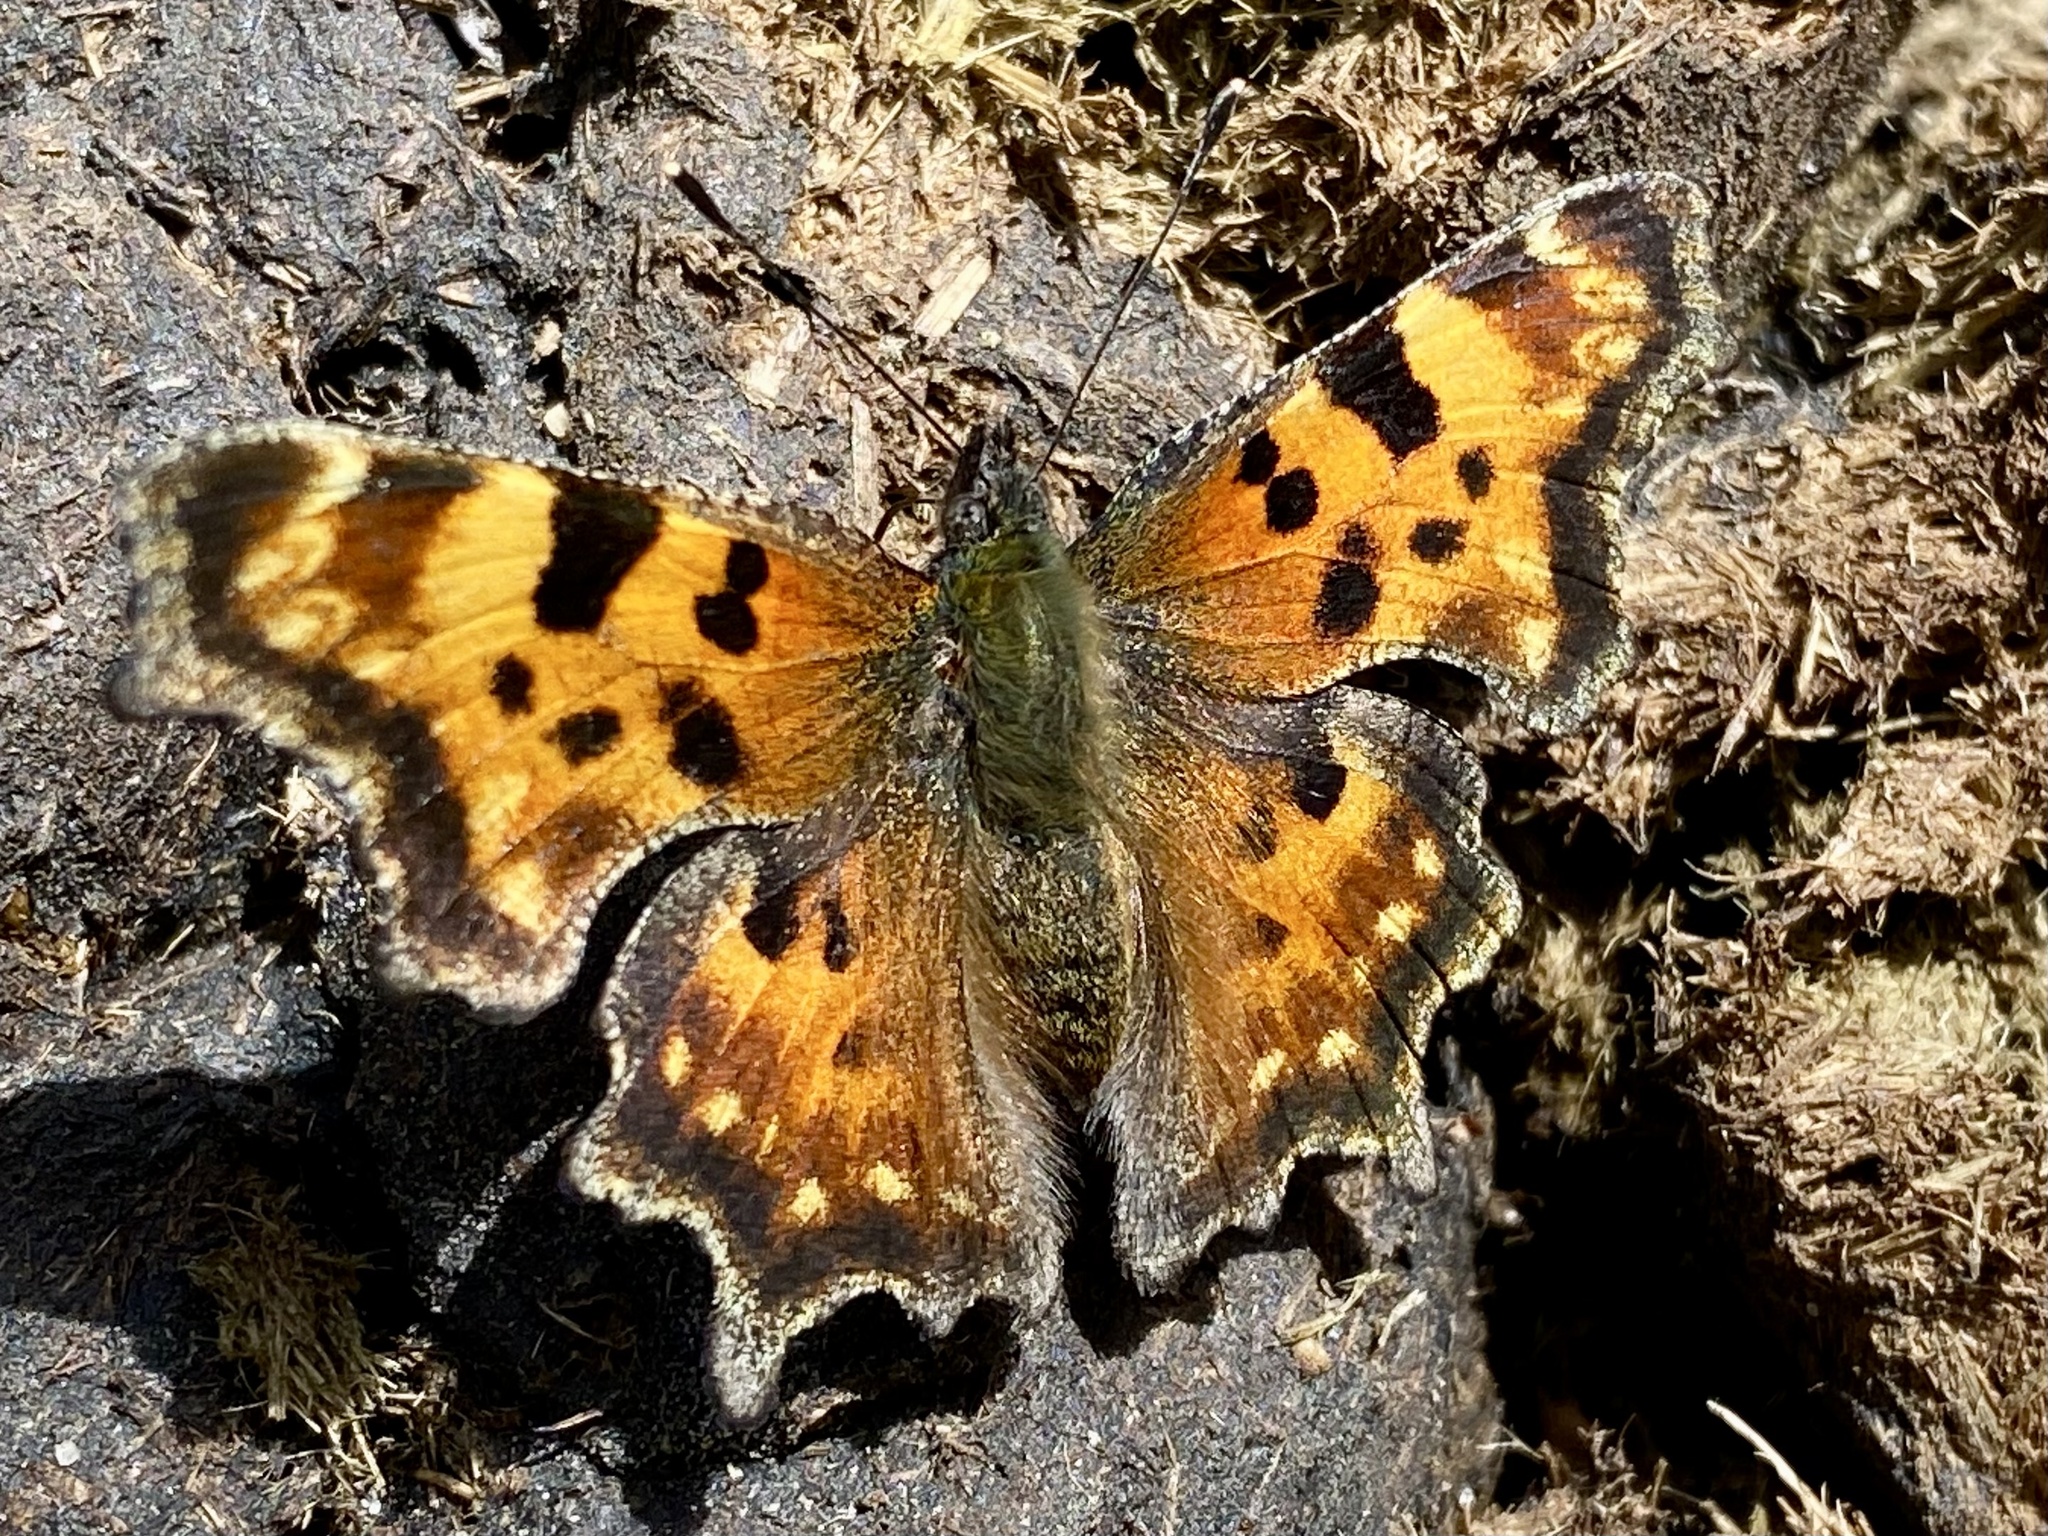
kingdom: Animalia
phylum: Arthropoda
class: Insecta
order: Lepidoptera
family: Nymphalidae
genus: Polygonia
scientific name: Polygonia faunus
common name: Green comma
